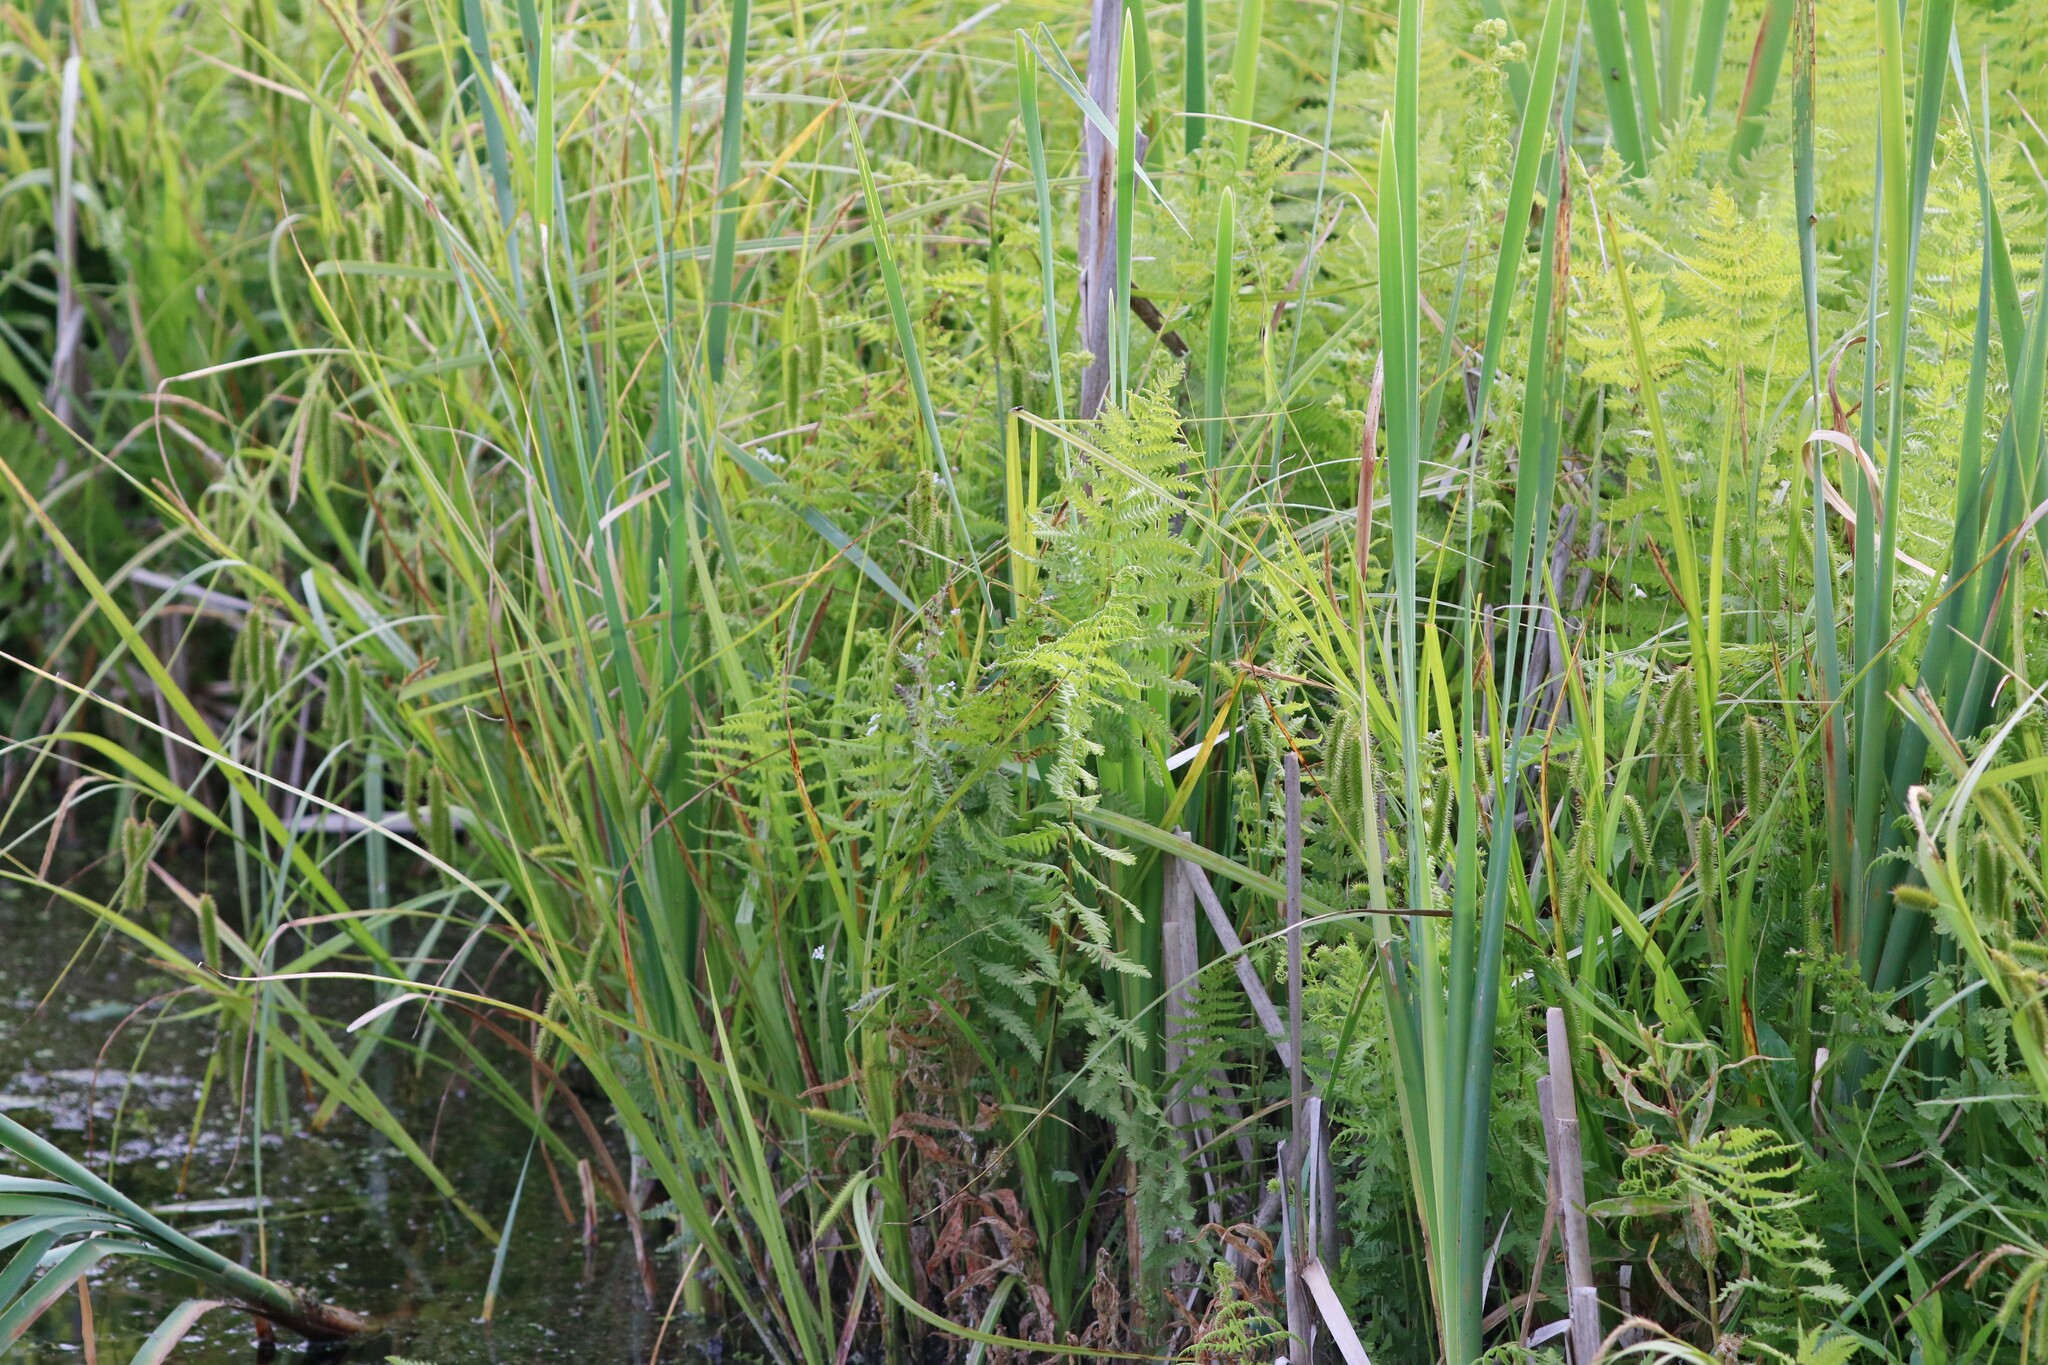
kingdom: Plantae
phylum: Tracheophyta
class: Polypodiopsida
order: Polypodiales
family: Thelypteridaceae
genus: Thelypteris
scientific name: Thelypteris palustris
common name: Marsh fern
